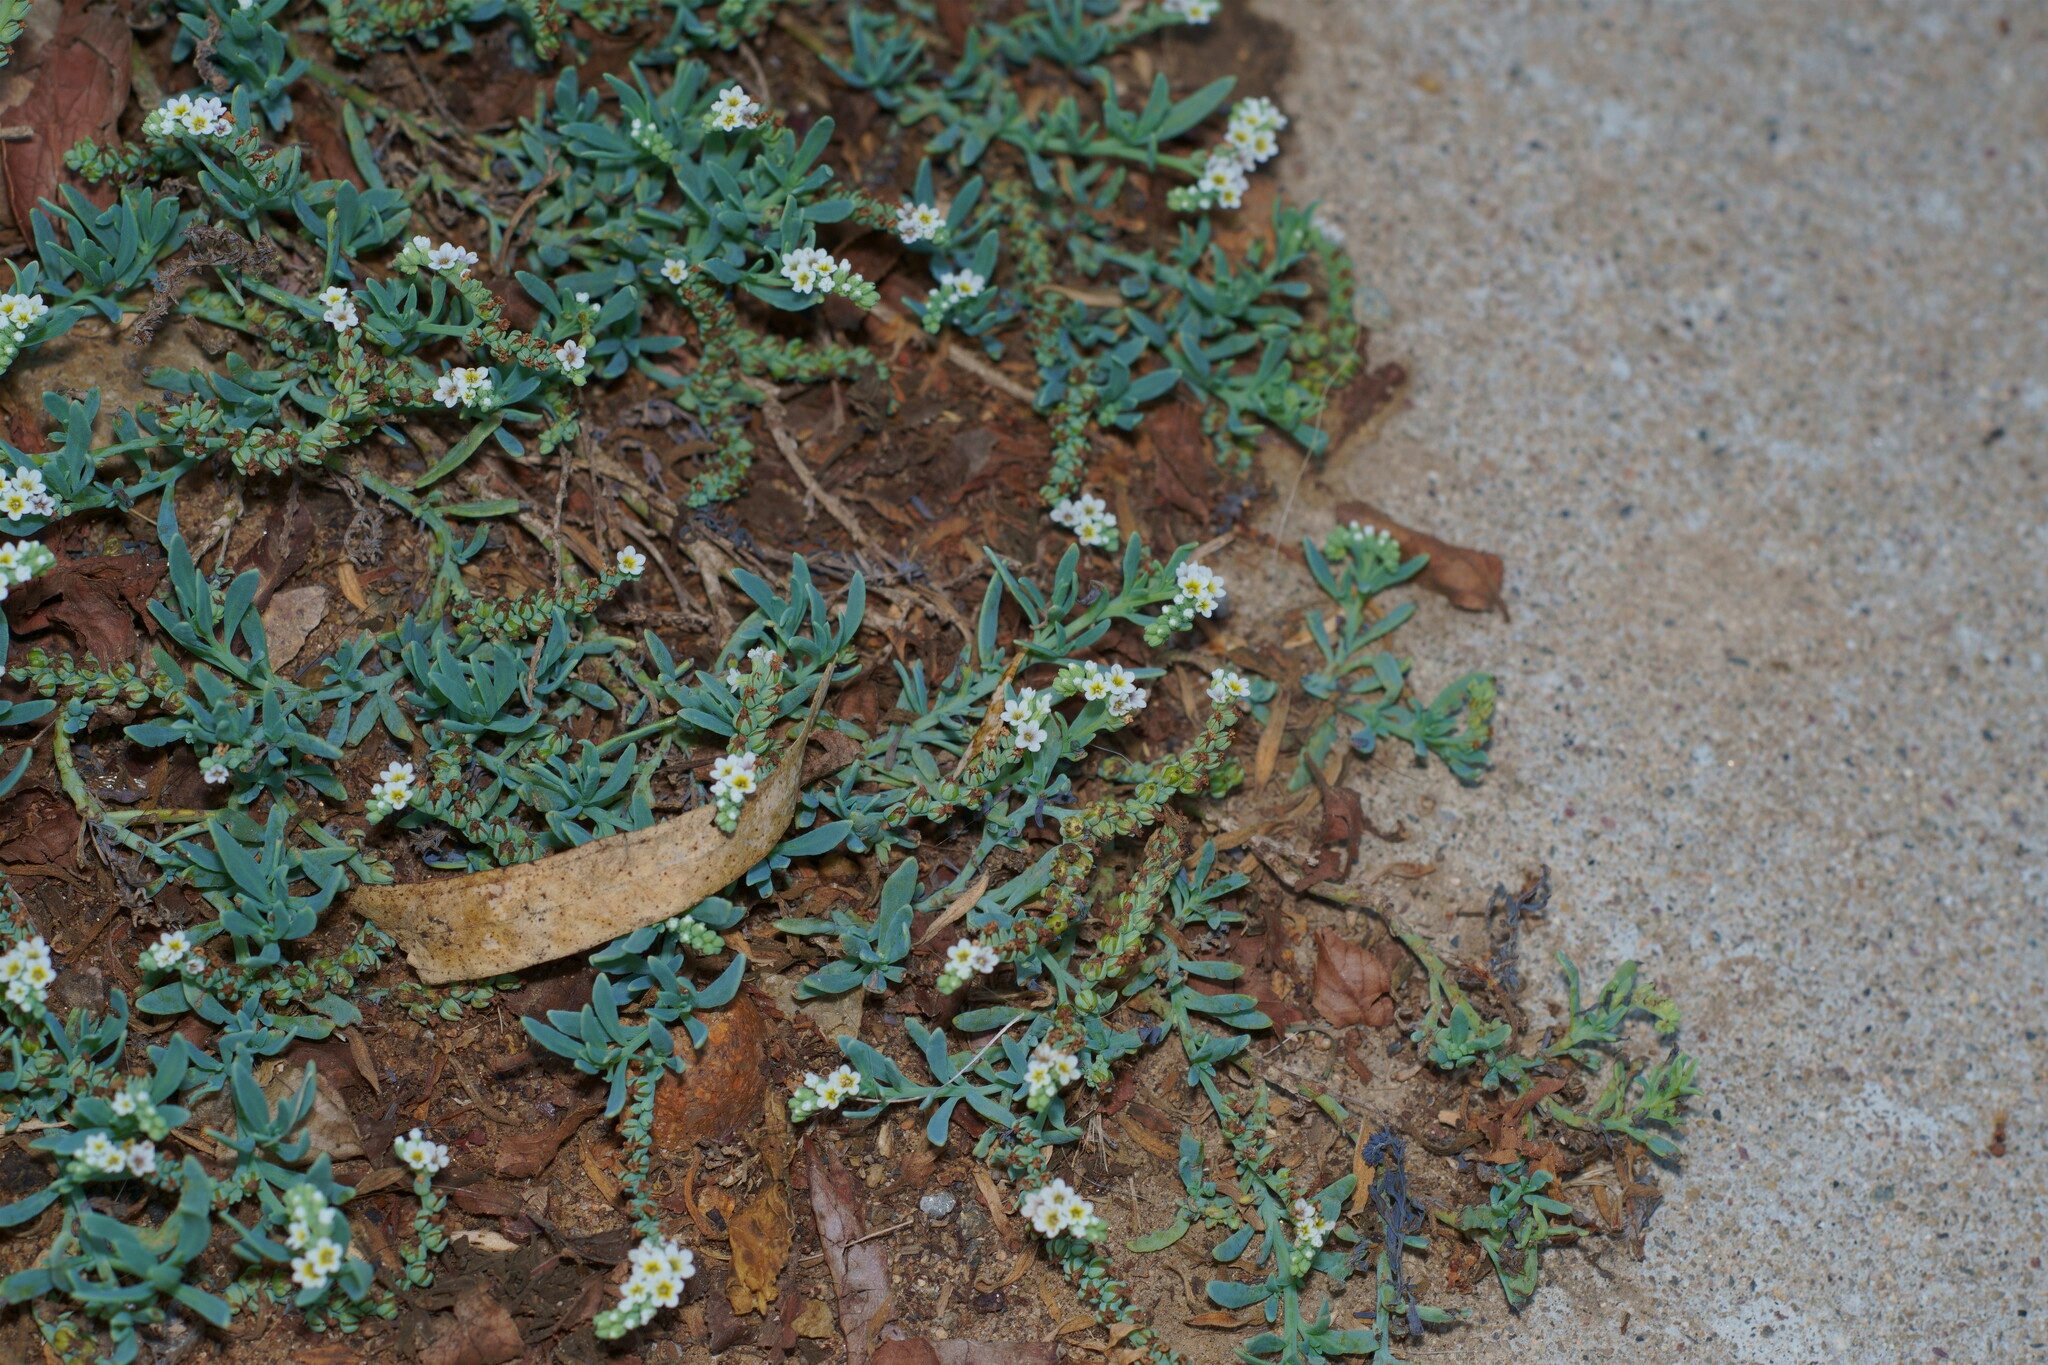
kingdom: Plantae
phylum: Tracheophyta
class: Magnoliopsida
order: Boraginales
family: Heliotropiaceae
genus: Heliotropium
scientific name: Heliotropium curassavicum
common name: Seaside heliotrope
